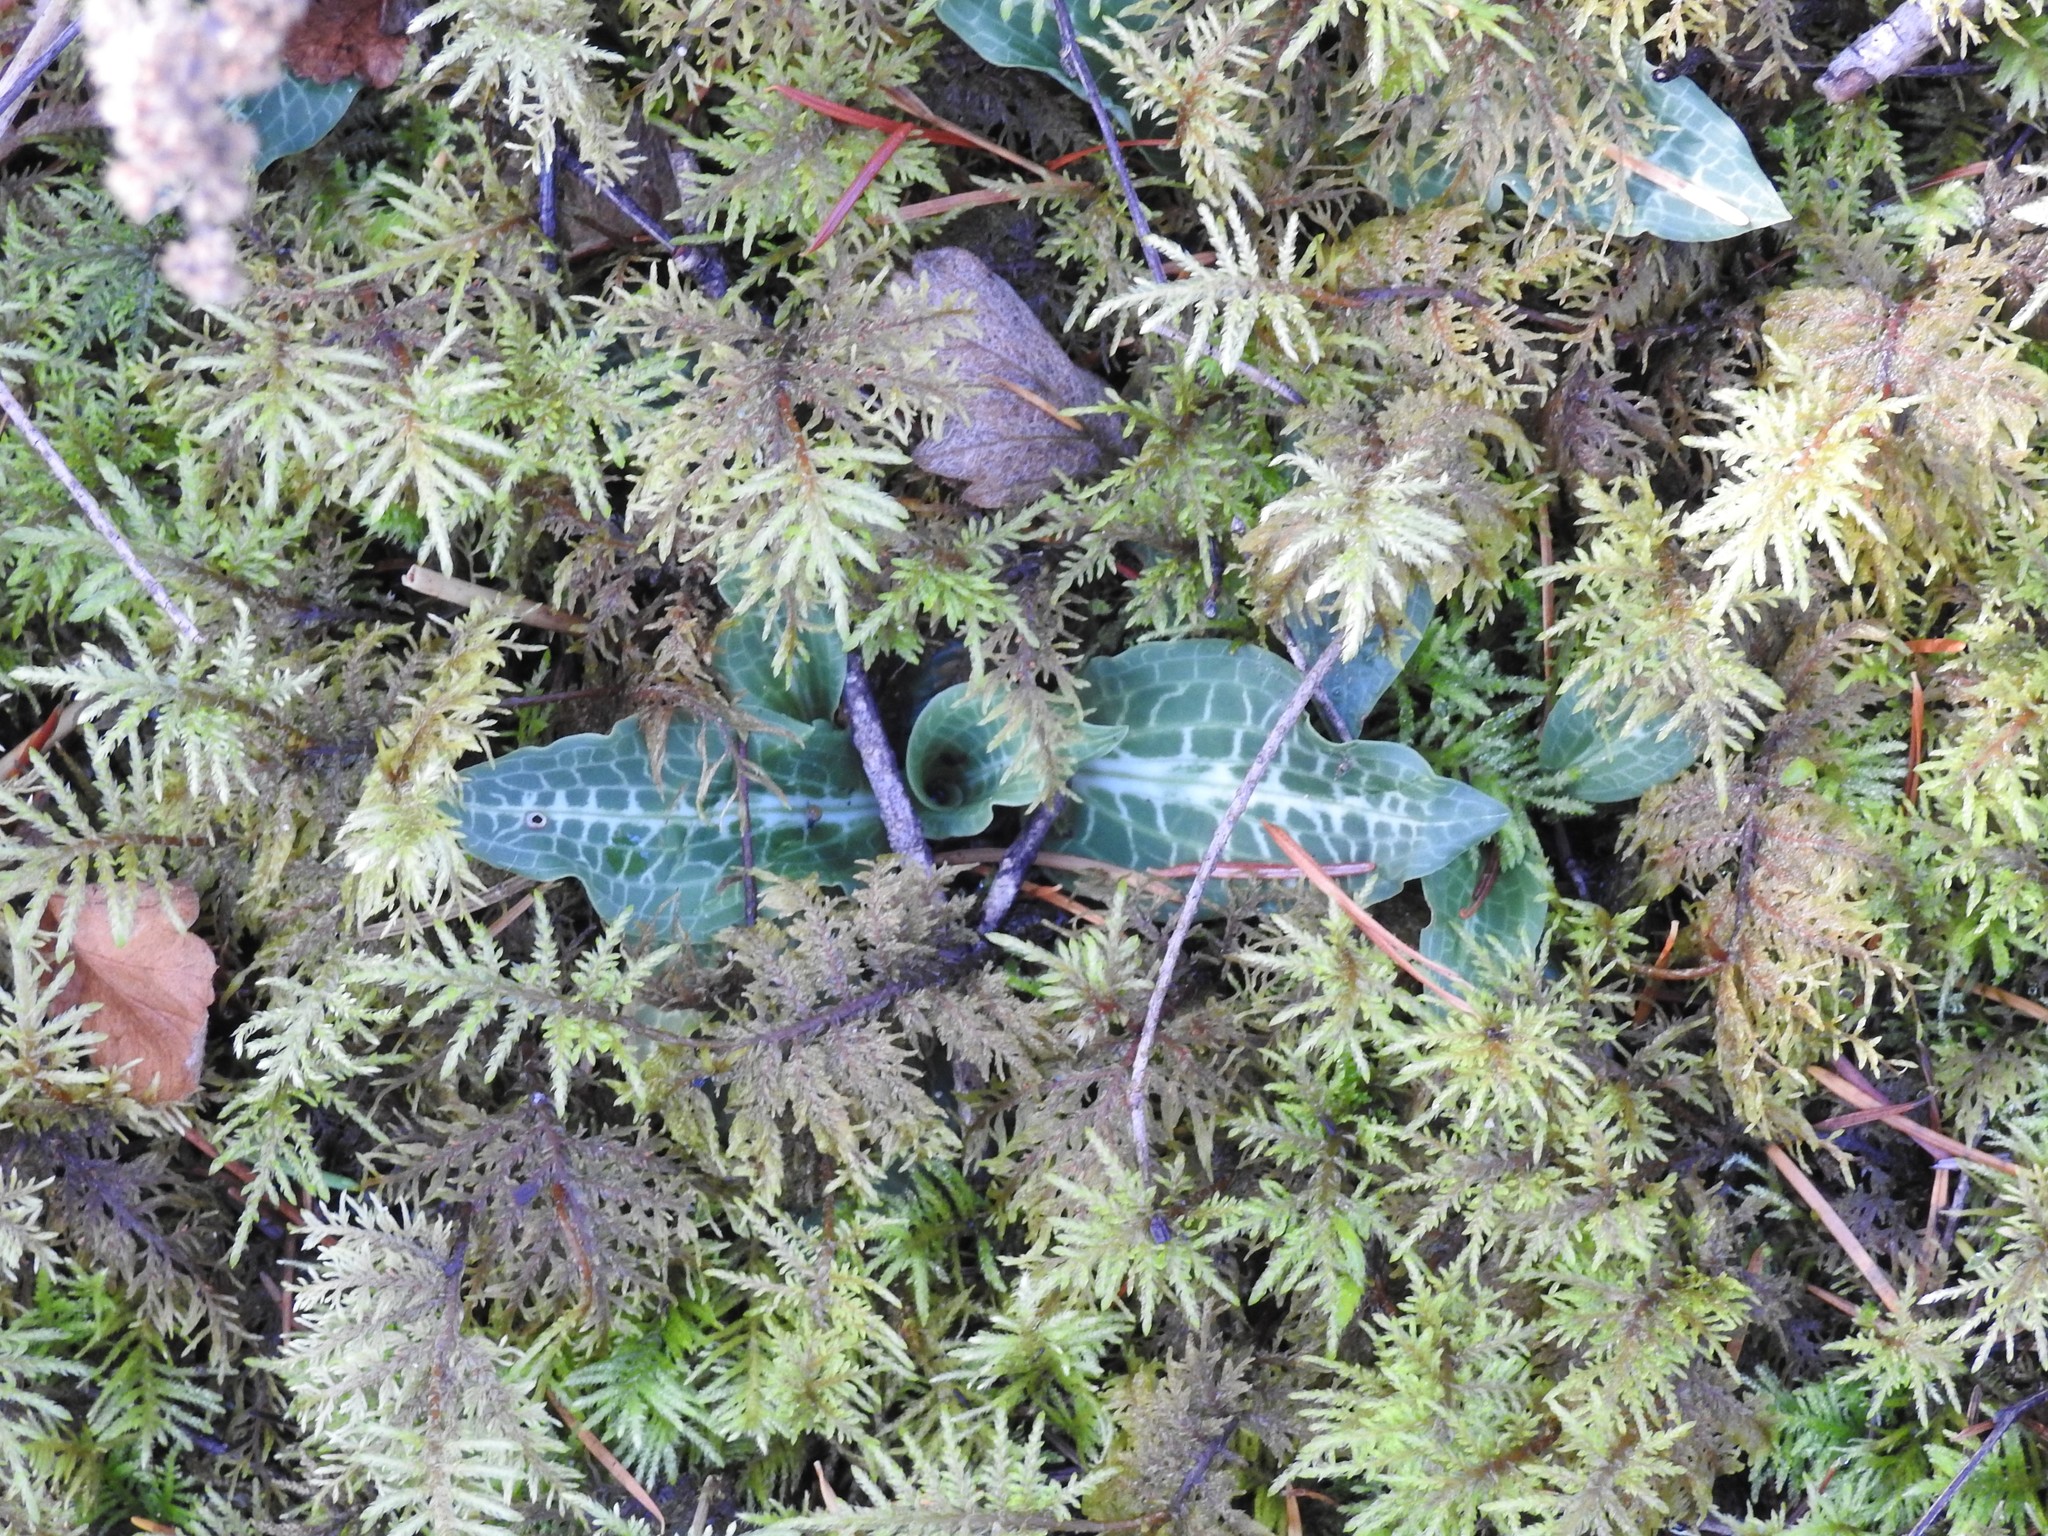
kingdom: Plantae
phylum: Tracheophyta
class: Liliopsida
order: Asparagales
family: Orchidaceae
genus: Goodyera
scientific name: Goodyera oblongifolia
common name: Giant rattlesnake-plantain
